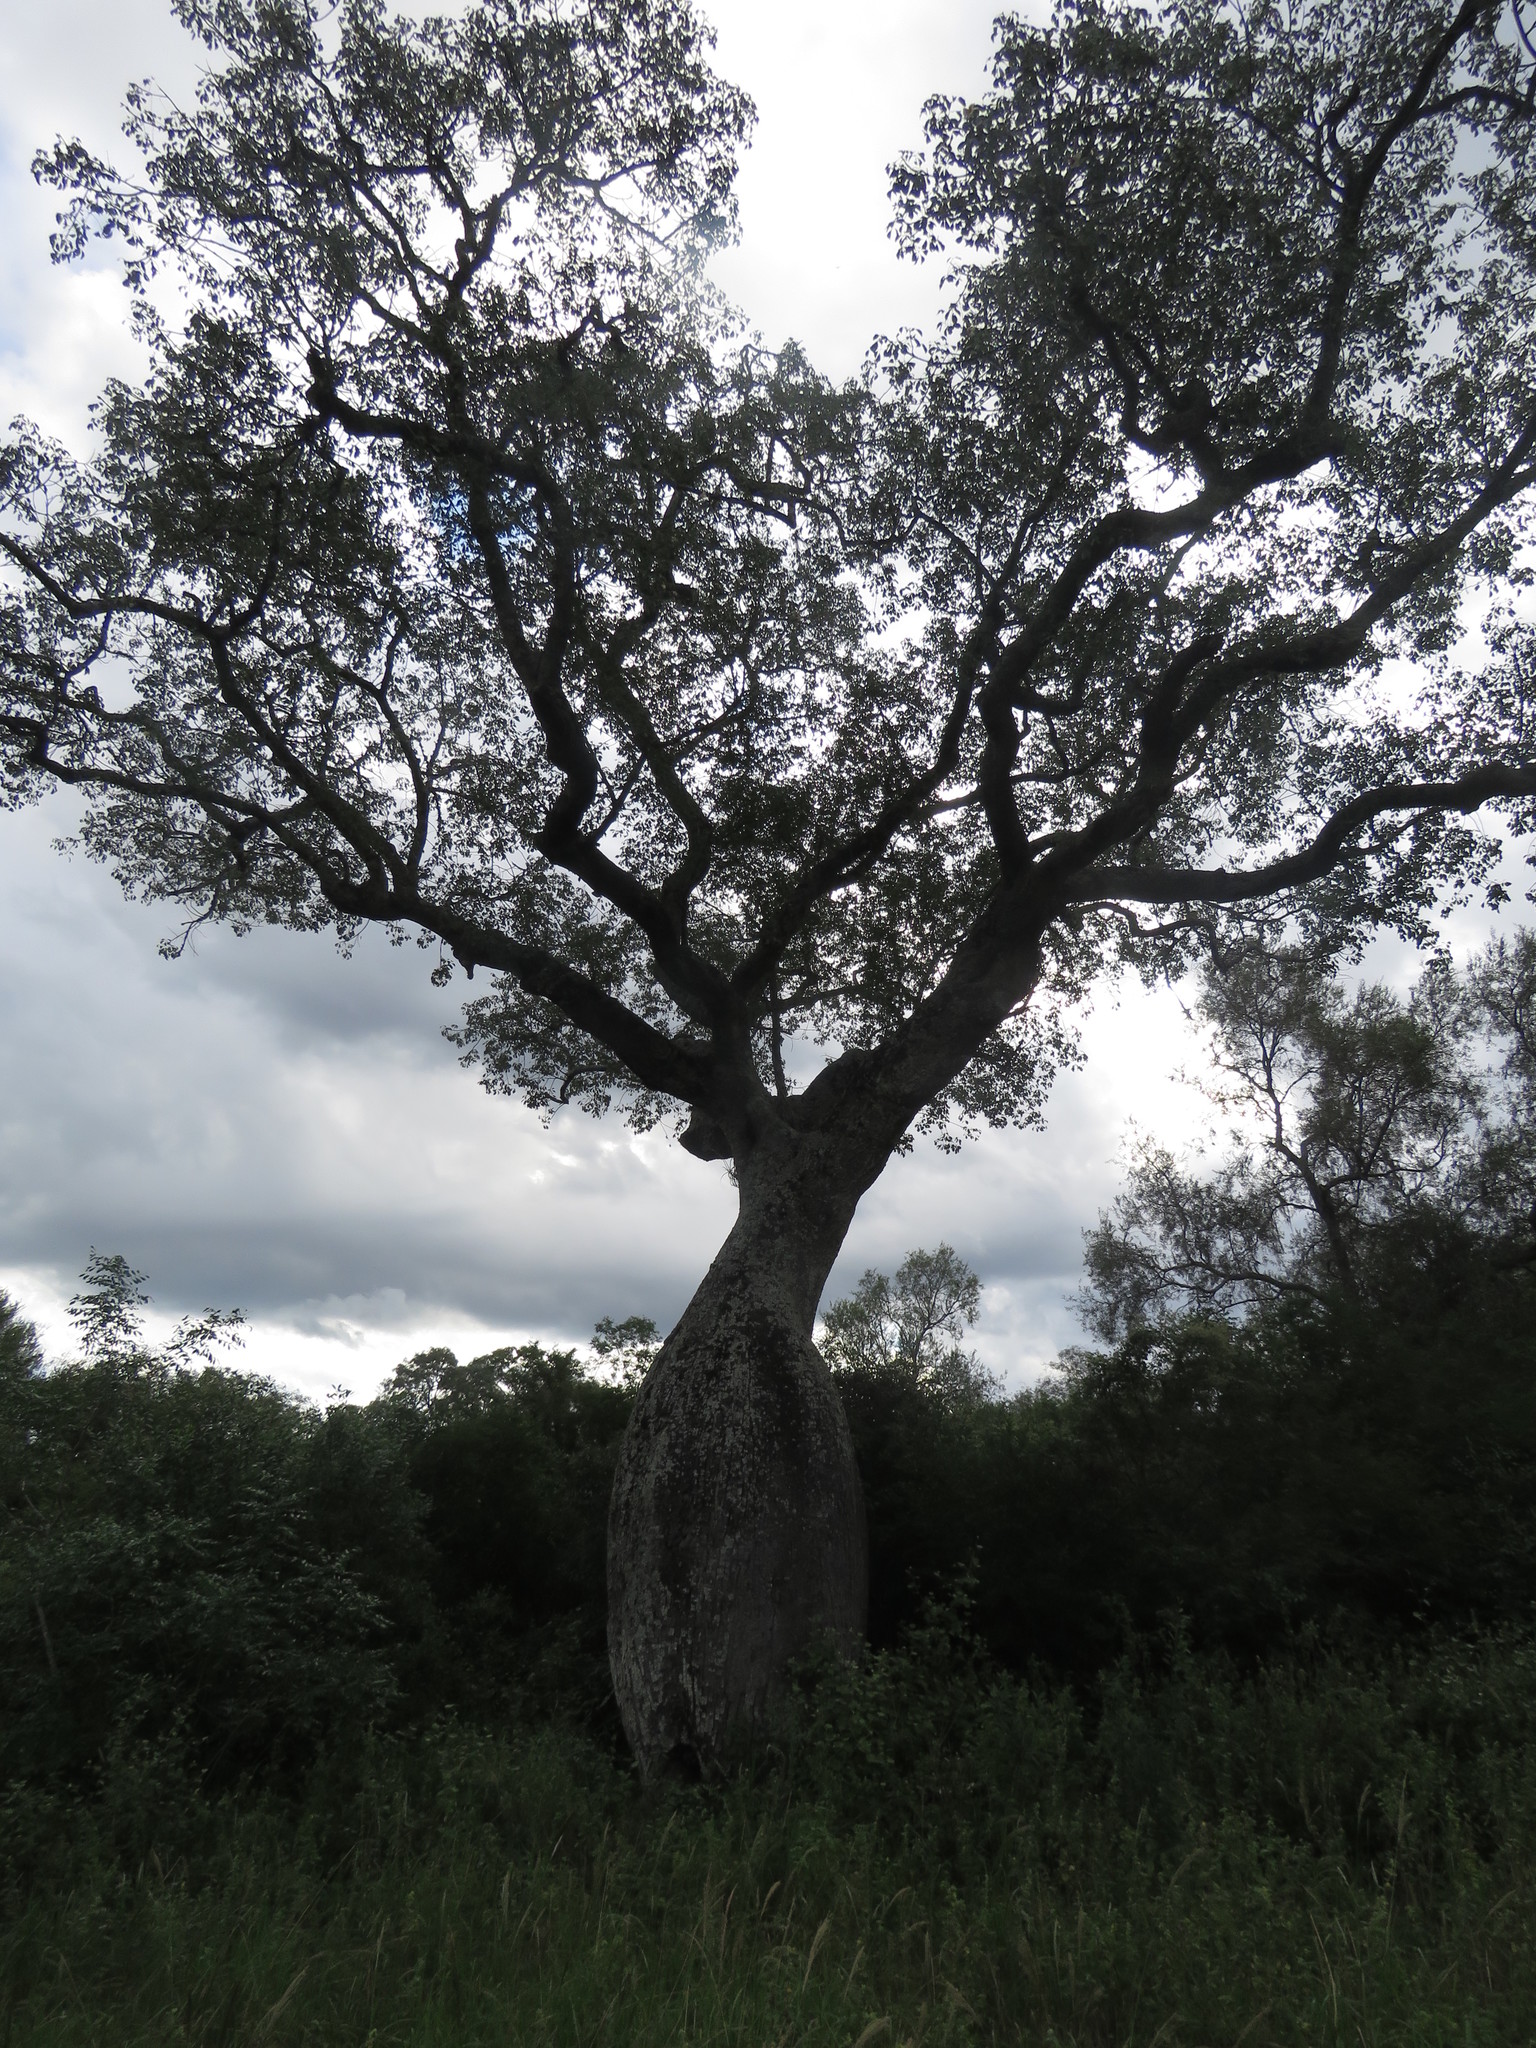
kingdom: Plantae
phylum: Tracheophyta
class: Magnoliopsida
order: Malvales
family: Malvaceae
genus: Ceiba
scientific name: Ceiba chodatii
